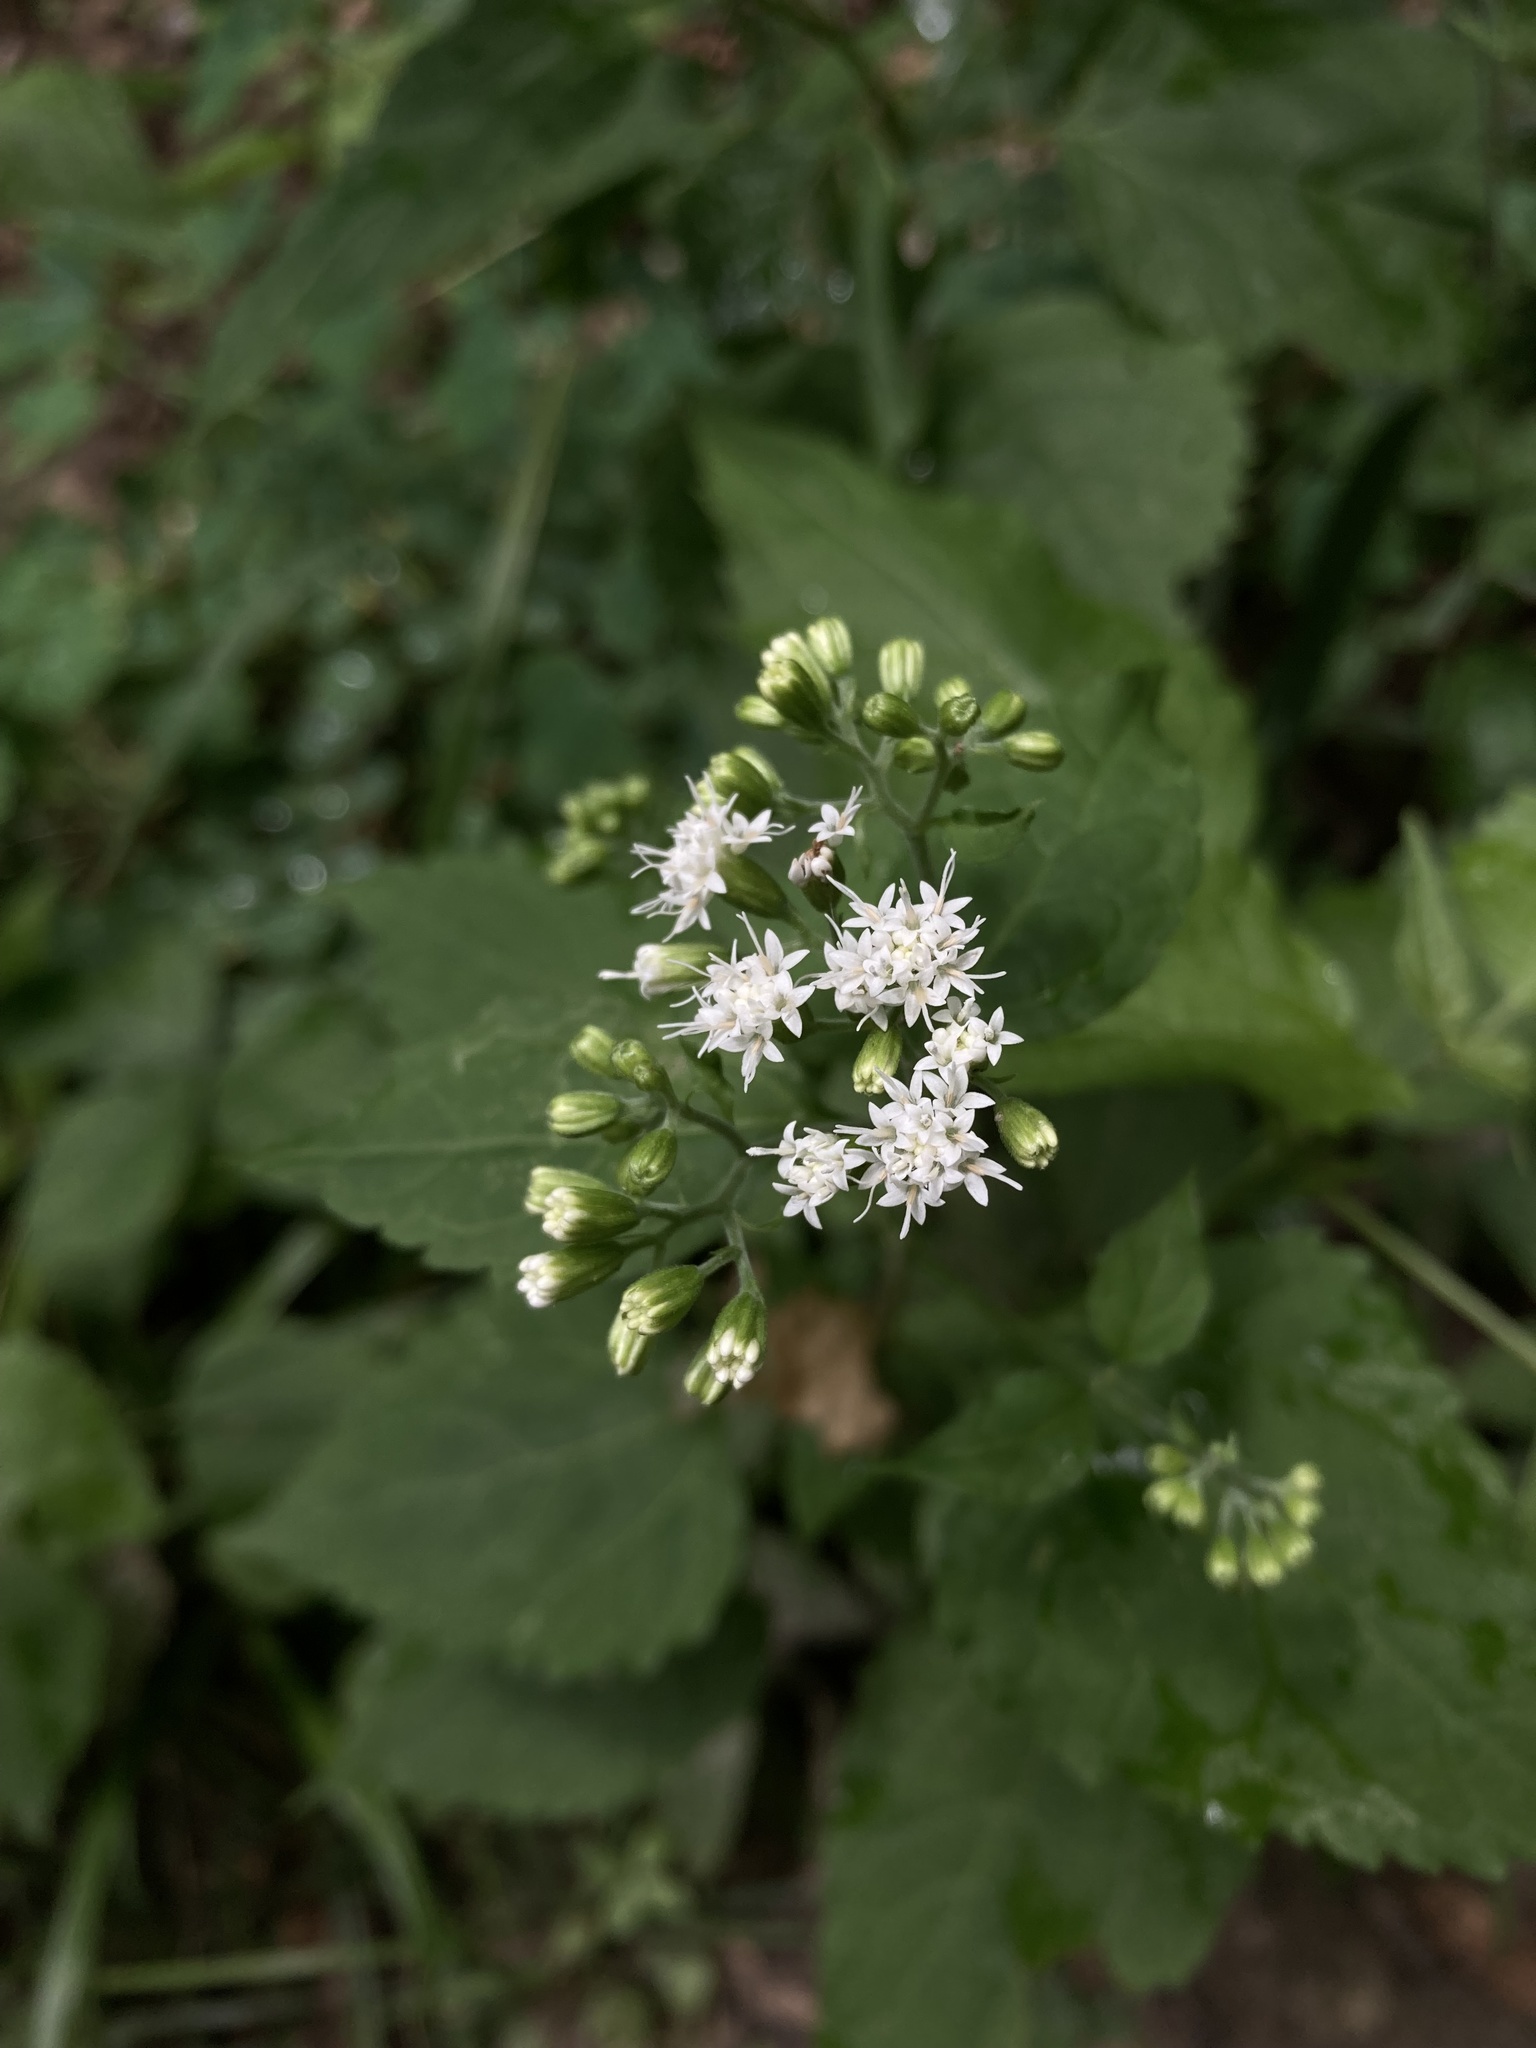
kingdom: Plantae
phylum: Tracheophyta
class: Magnoliopsida
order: Asterales
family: Asteraceae
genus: Ageratina
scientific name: Ageratina altissima
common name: White snakeroot
